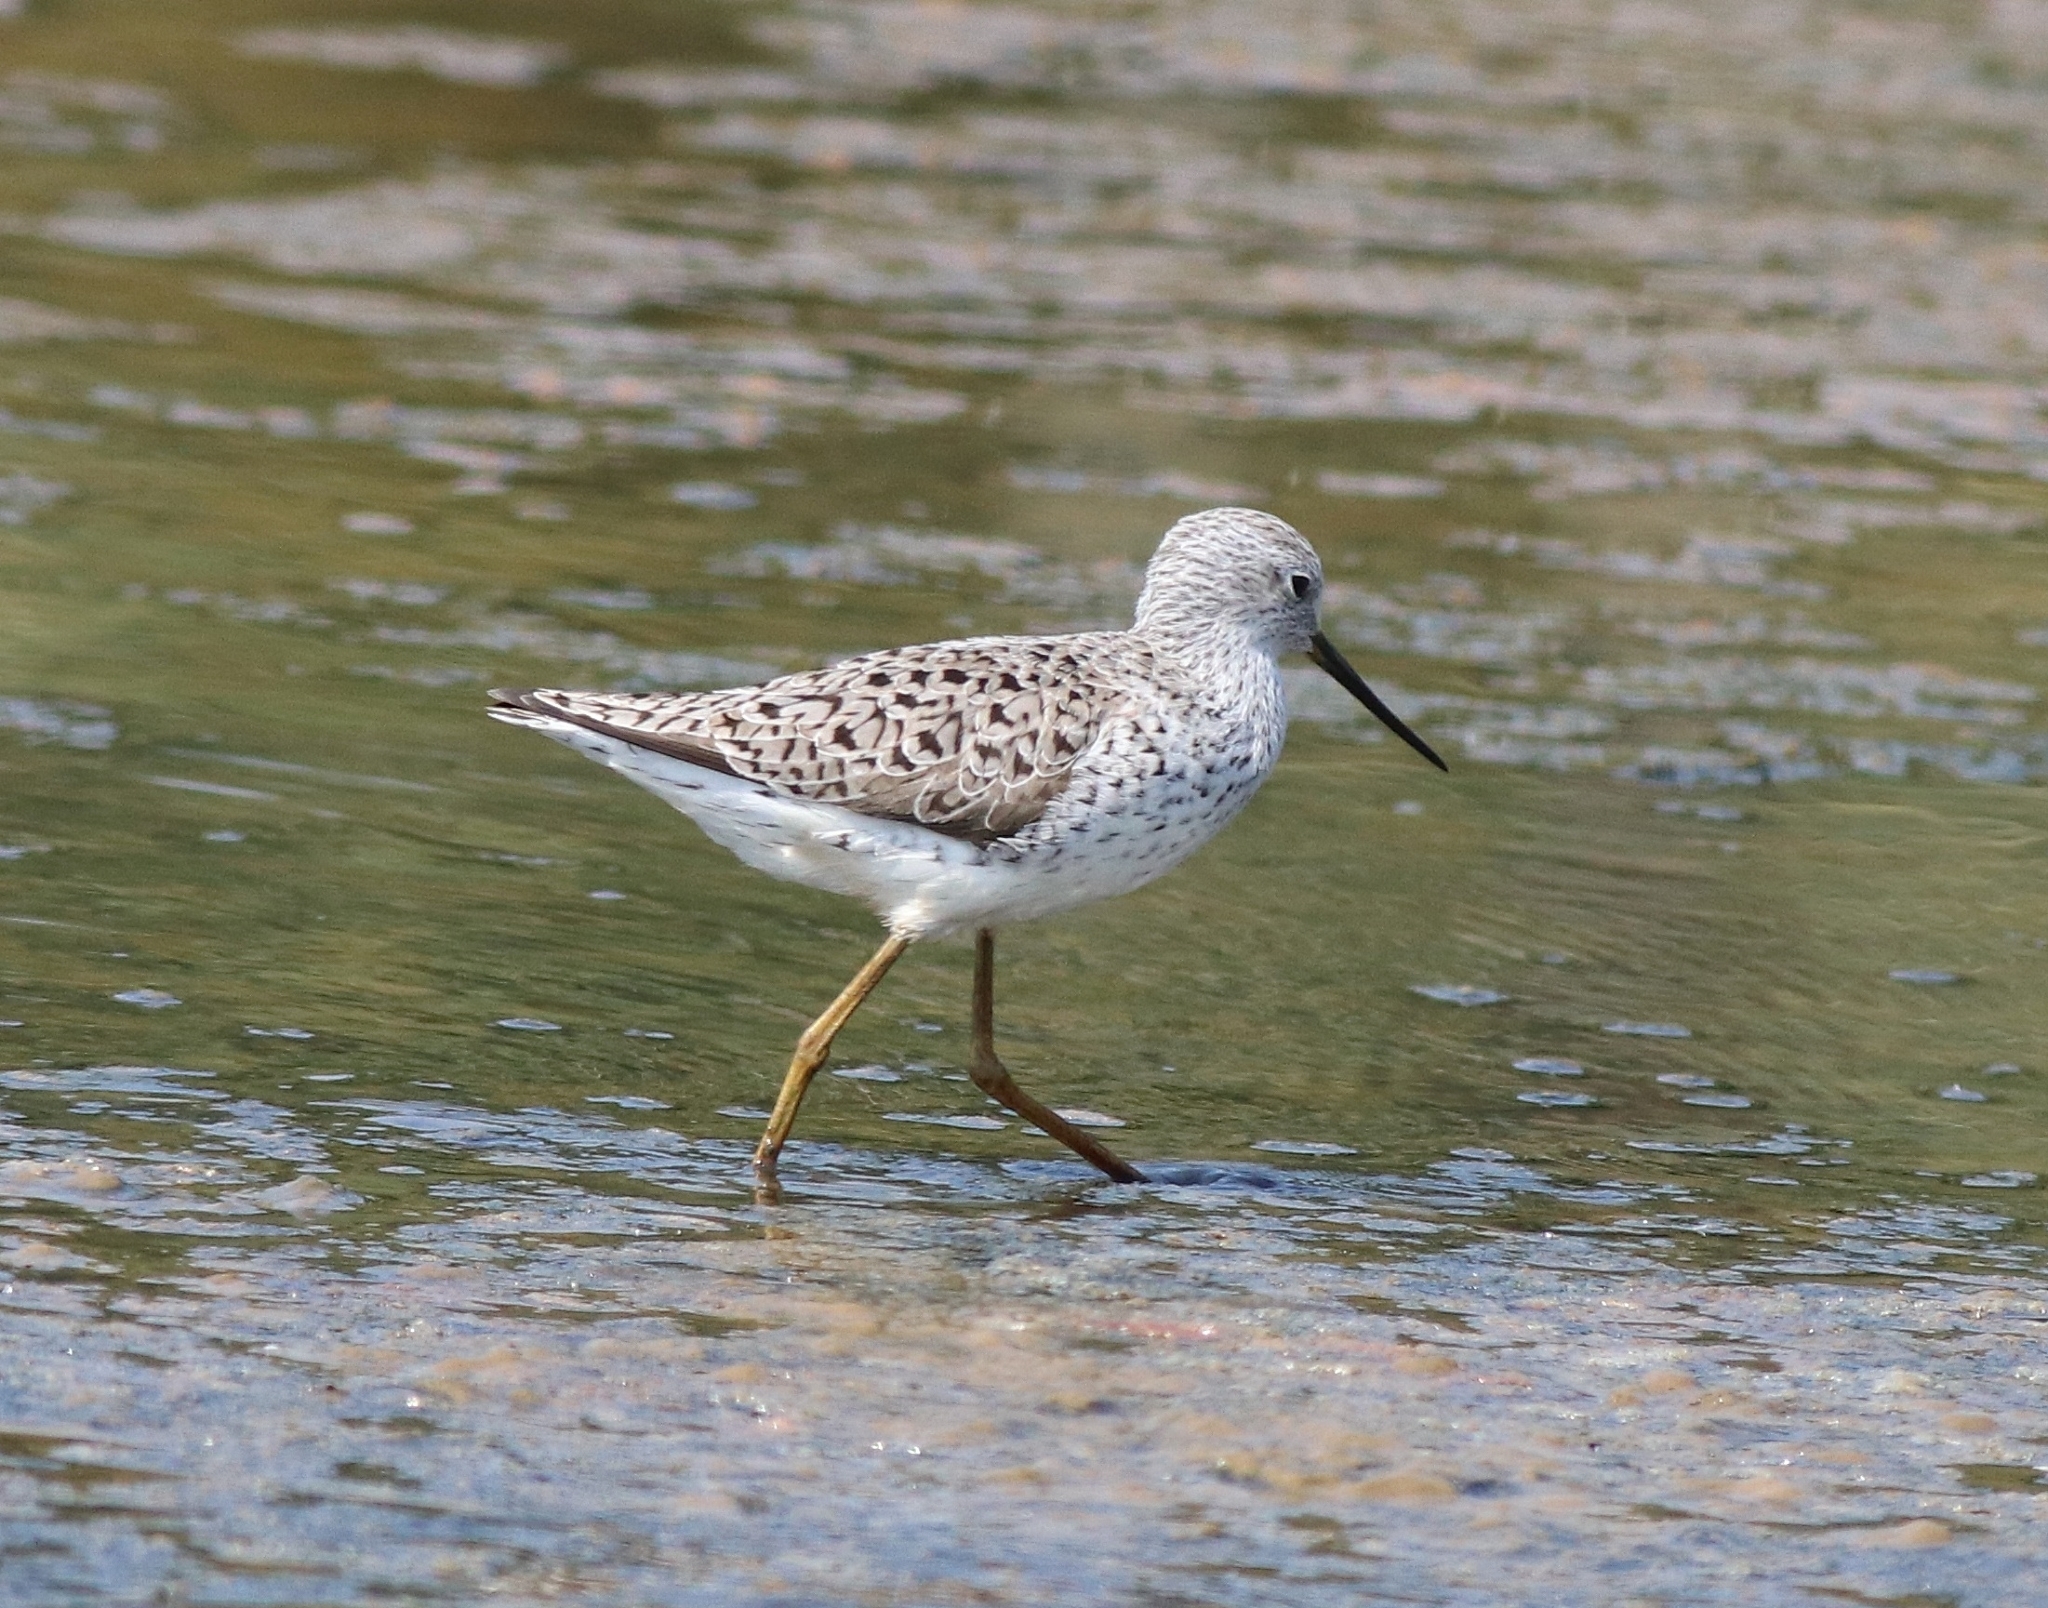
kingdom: Animalia
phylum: Chordata
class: Aves
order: Charadriiformes
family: Scolopacidae
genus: Tringa
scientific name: Tringa stagnatilis
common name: Marsh sandpiper
